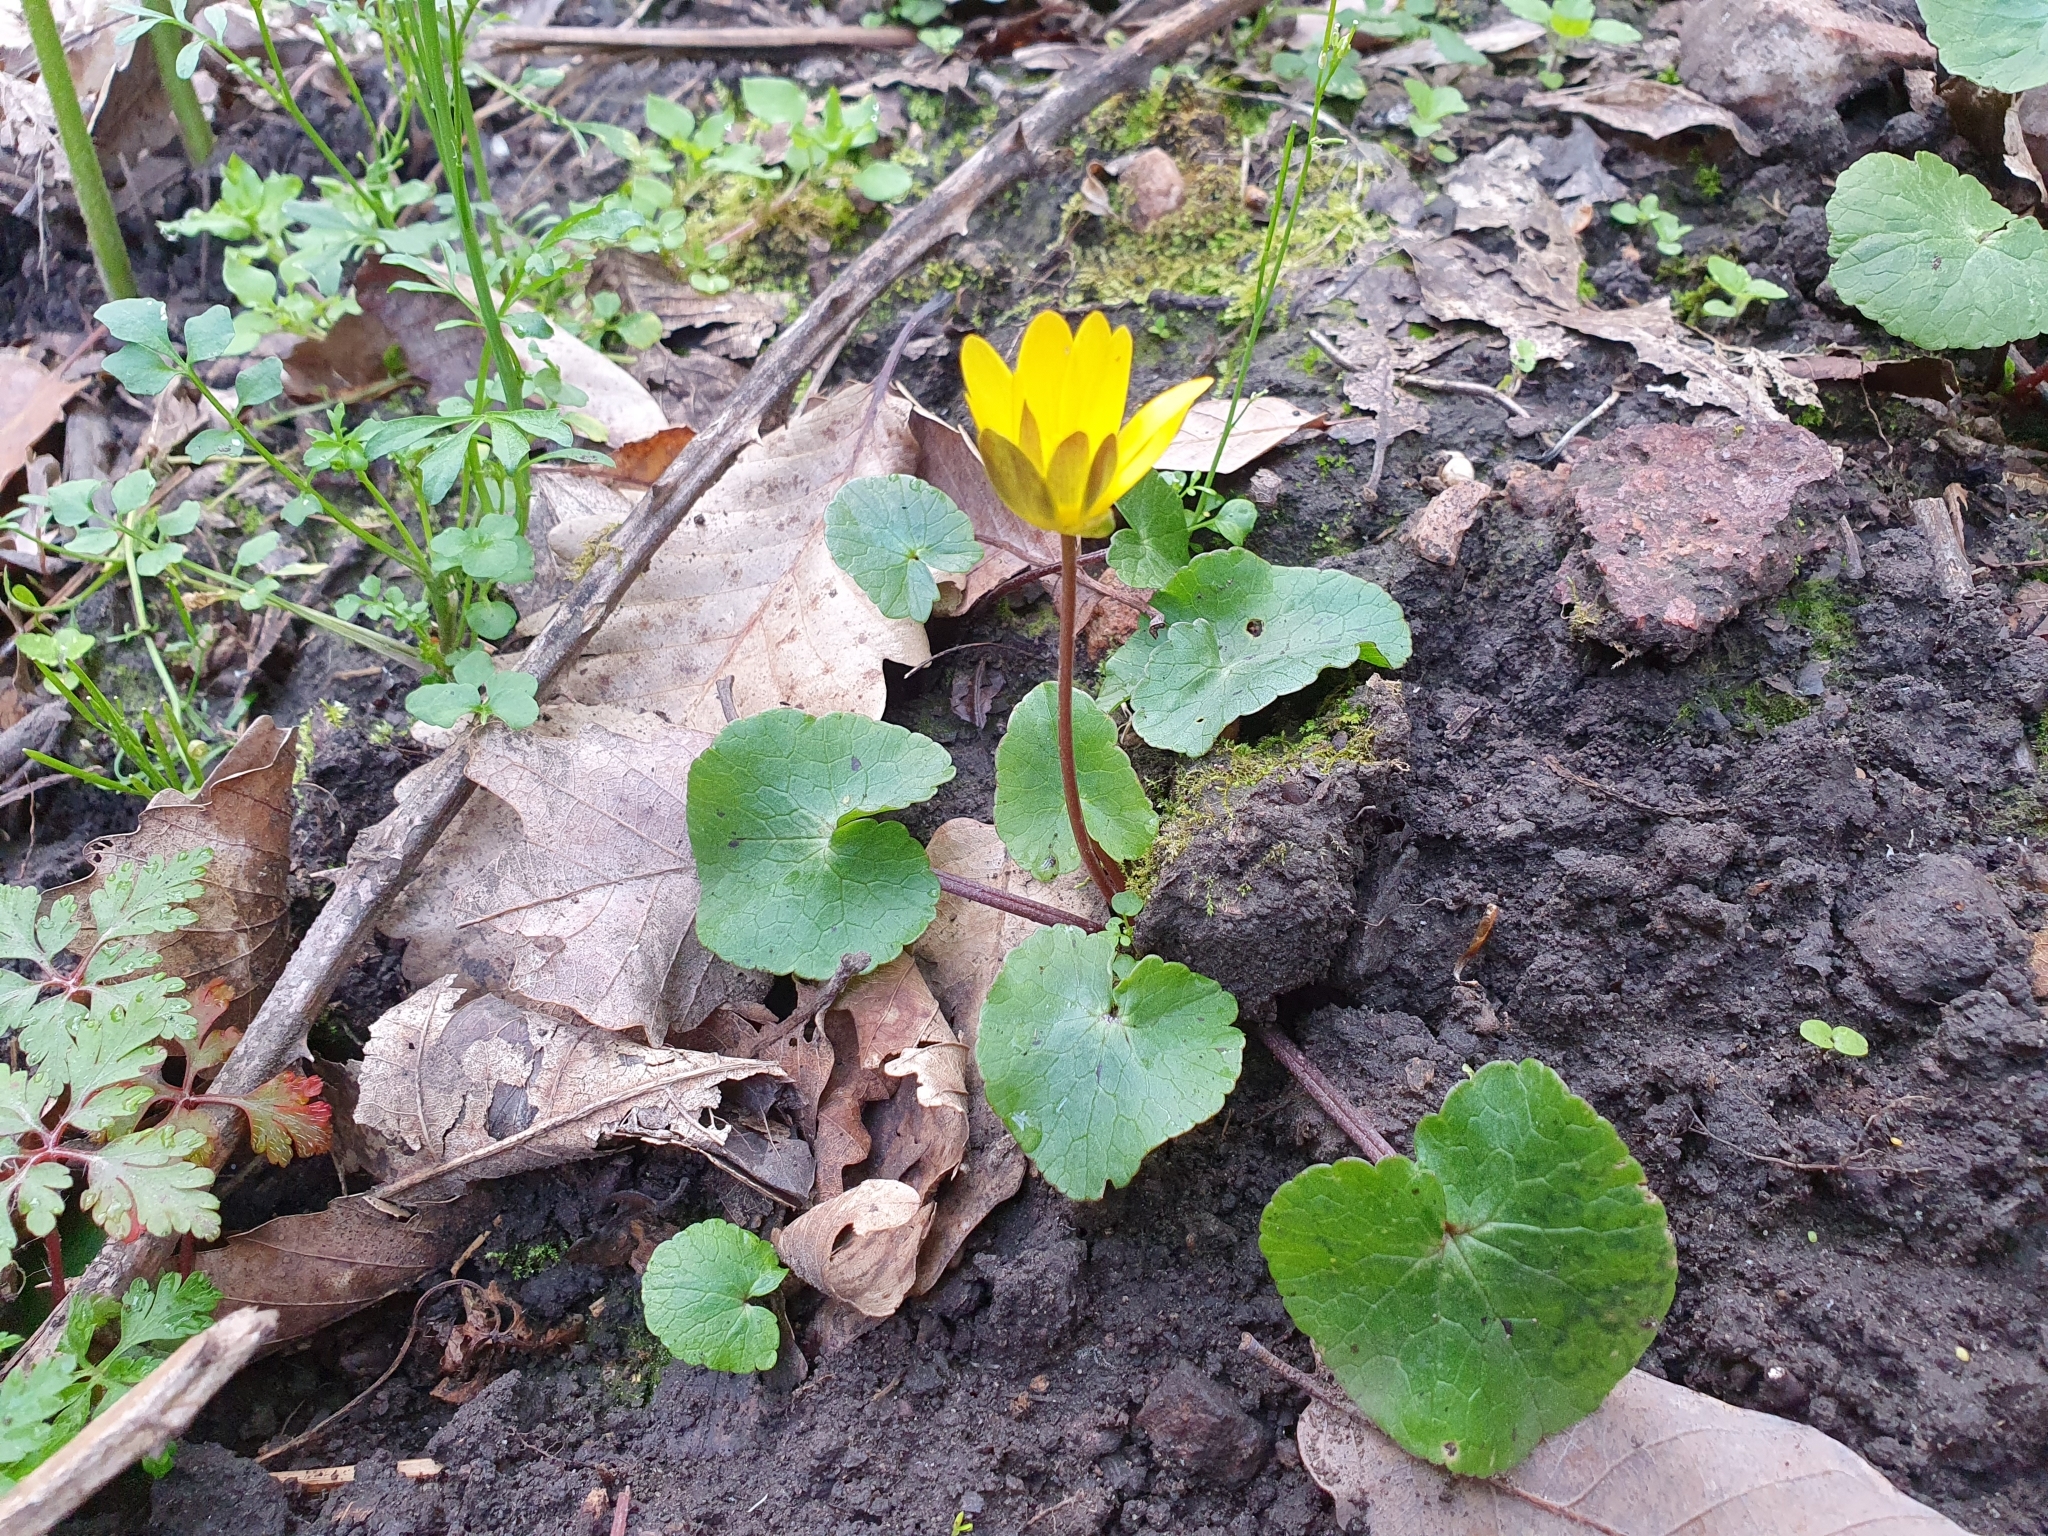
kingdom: Plantae
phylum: Tracheophyta
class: Magnoliopsida
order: Ranunculales
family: Ranunculaceae
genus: Ficaria
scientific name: Ficaria verna
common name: Lesser celandine
